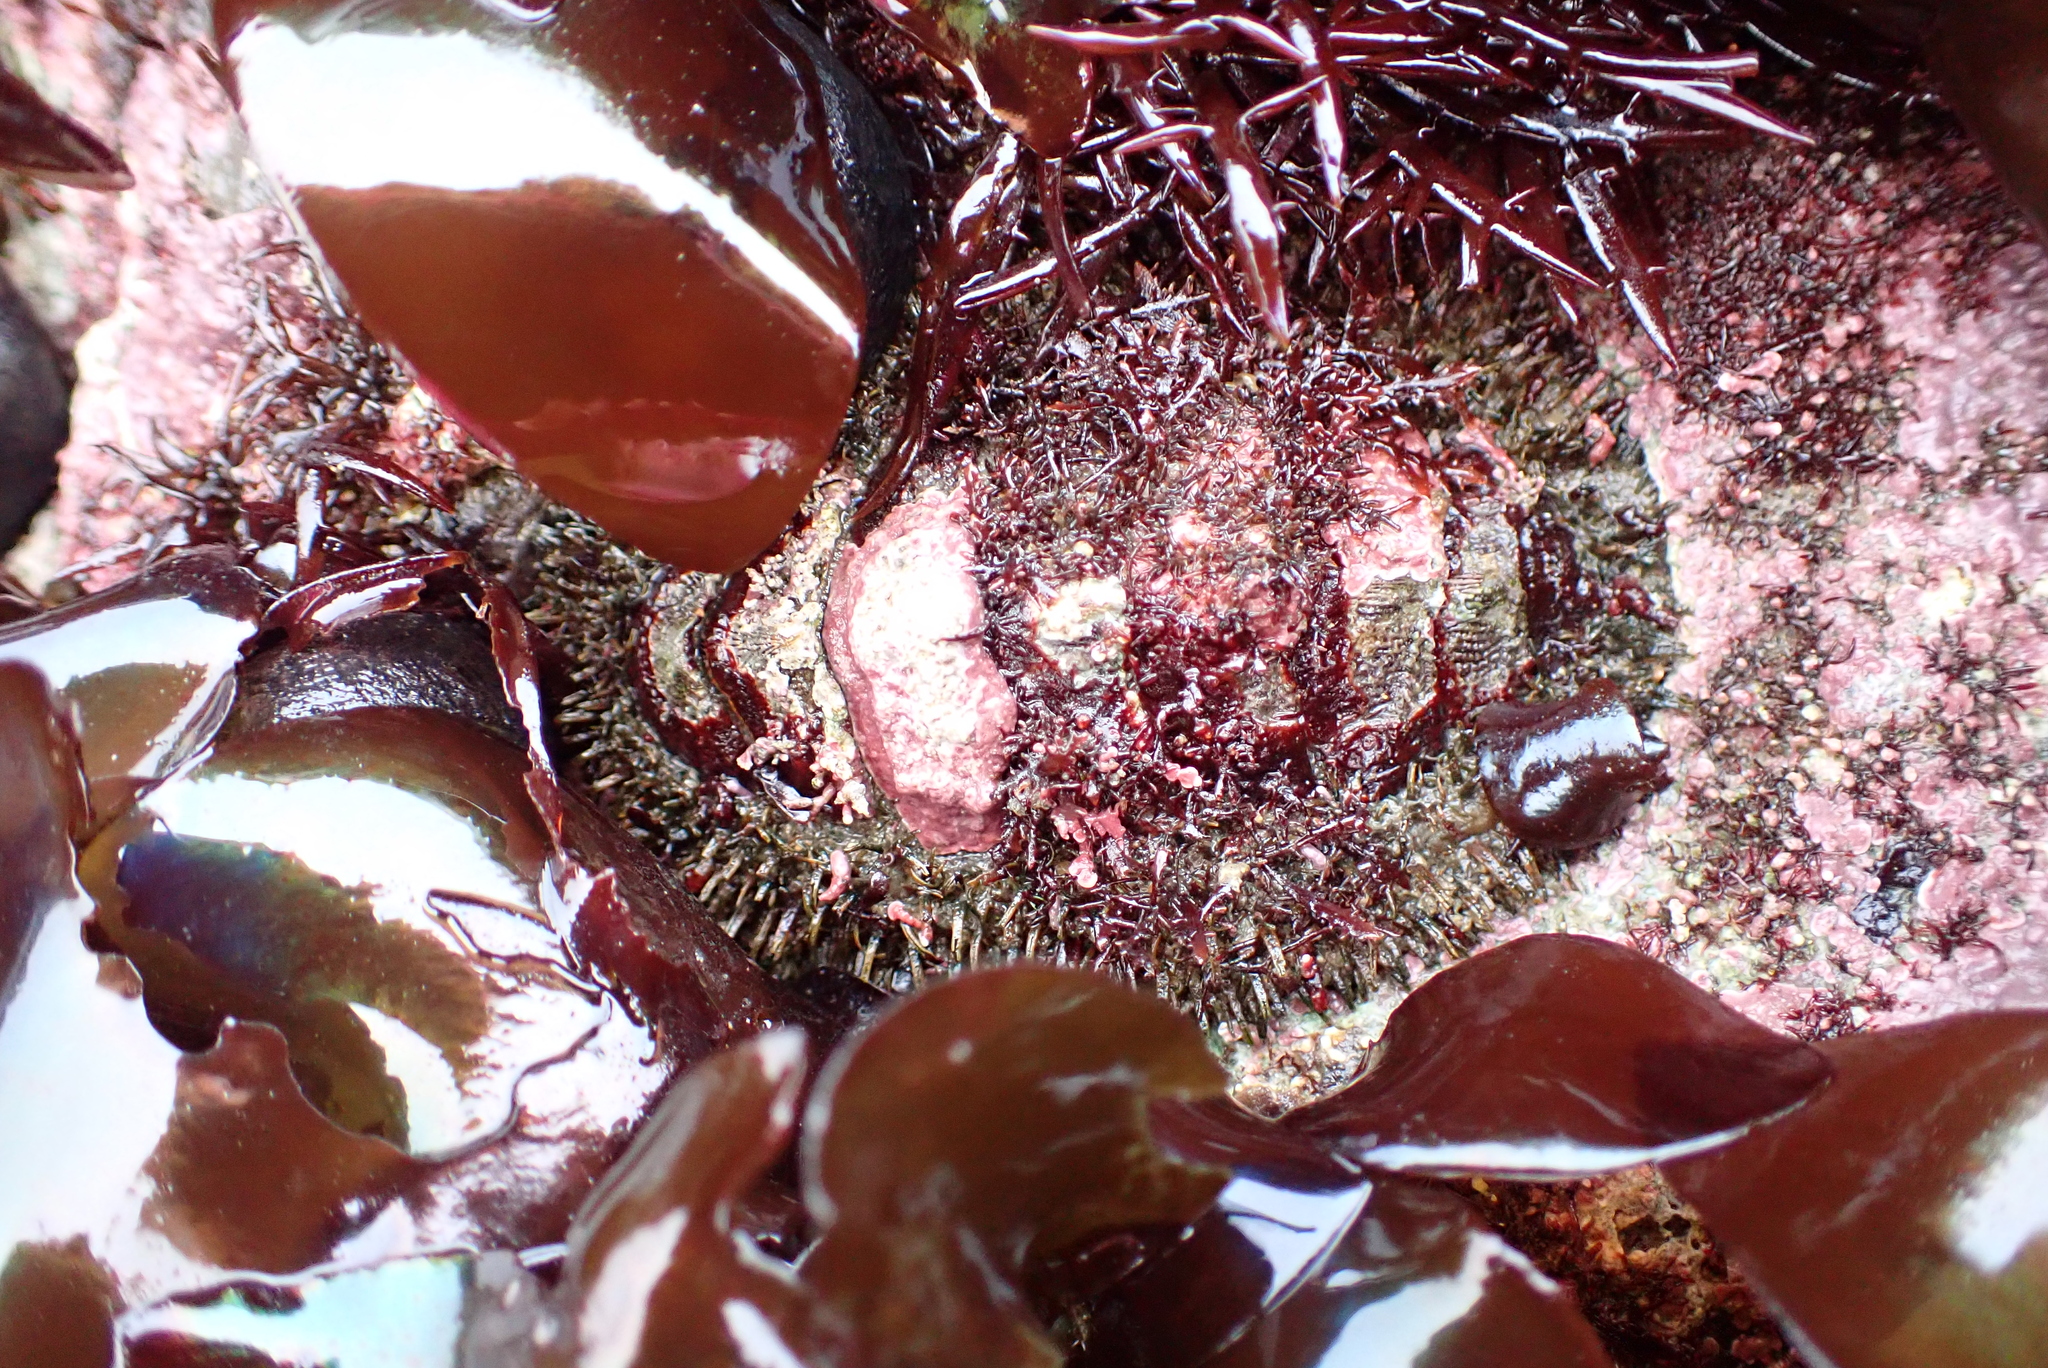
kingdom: Animalia
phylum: Mollusca
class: Polyplacophora
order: Chitonida
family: Mopaliidae
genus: Mopalia
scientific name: Mopalia muscosa
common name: Mossy chiton
